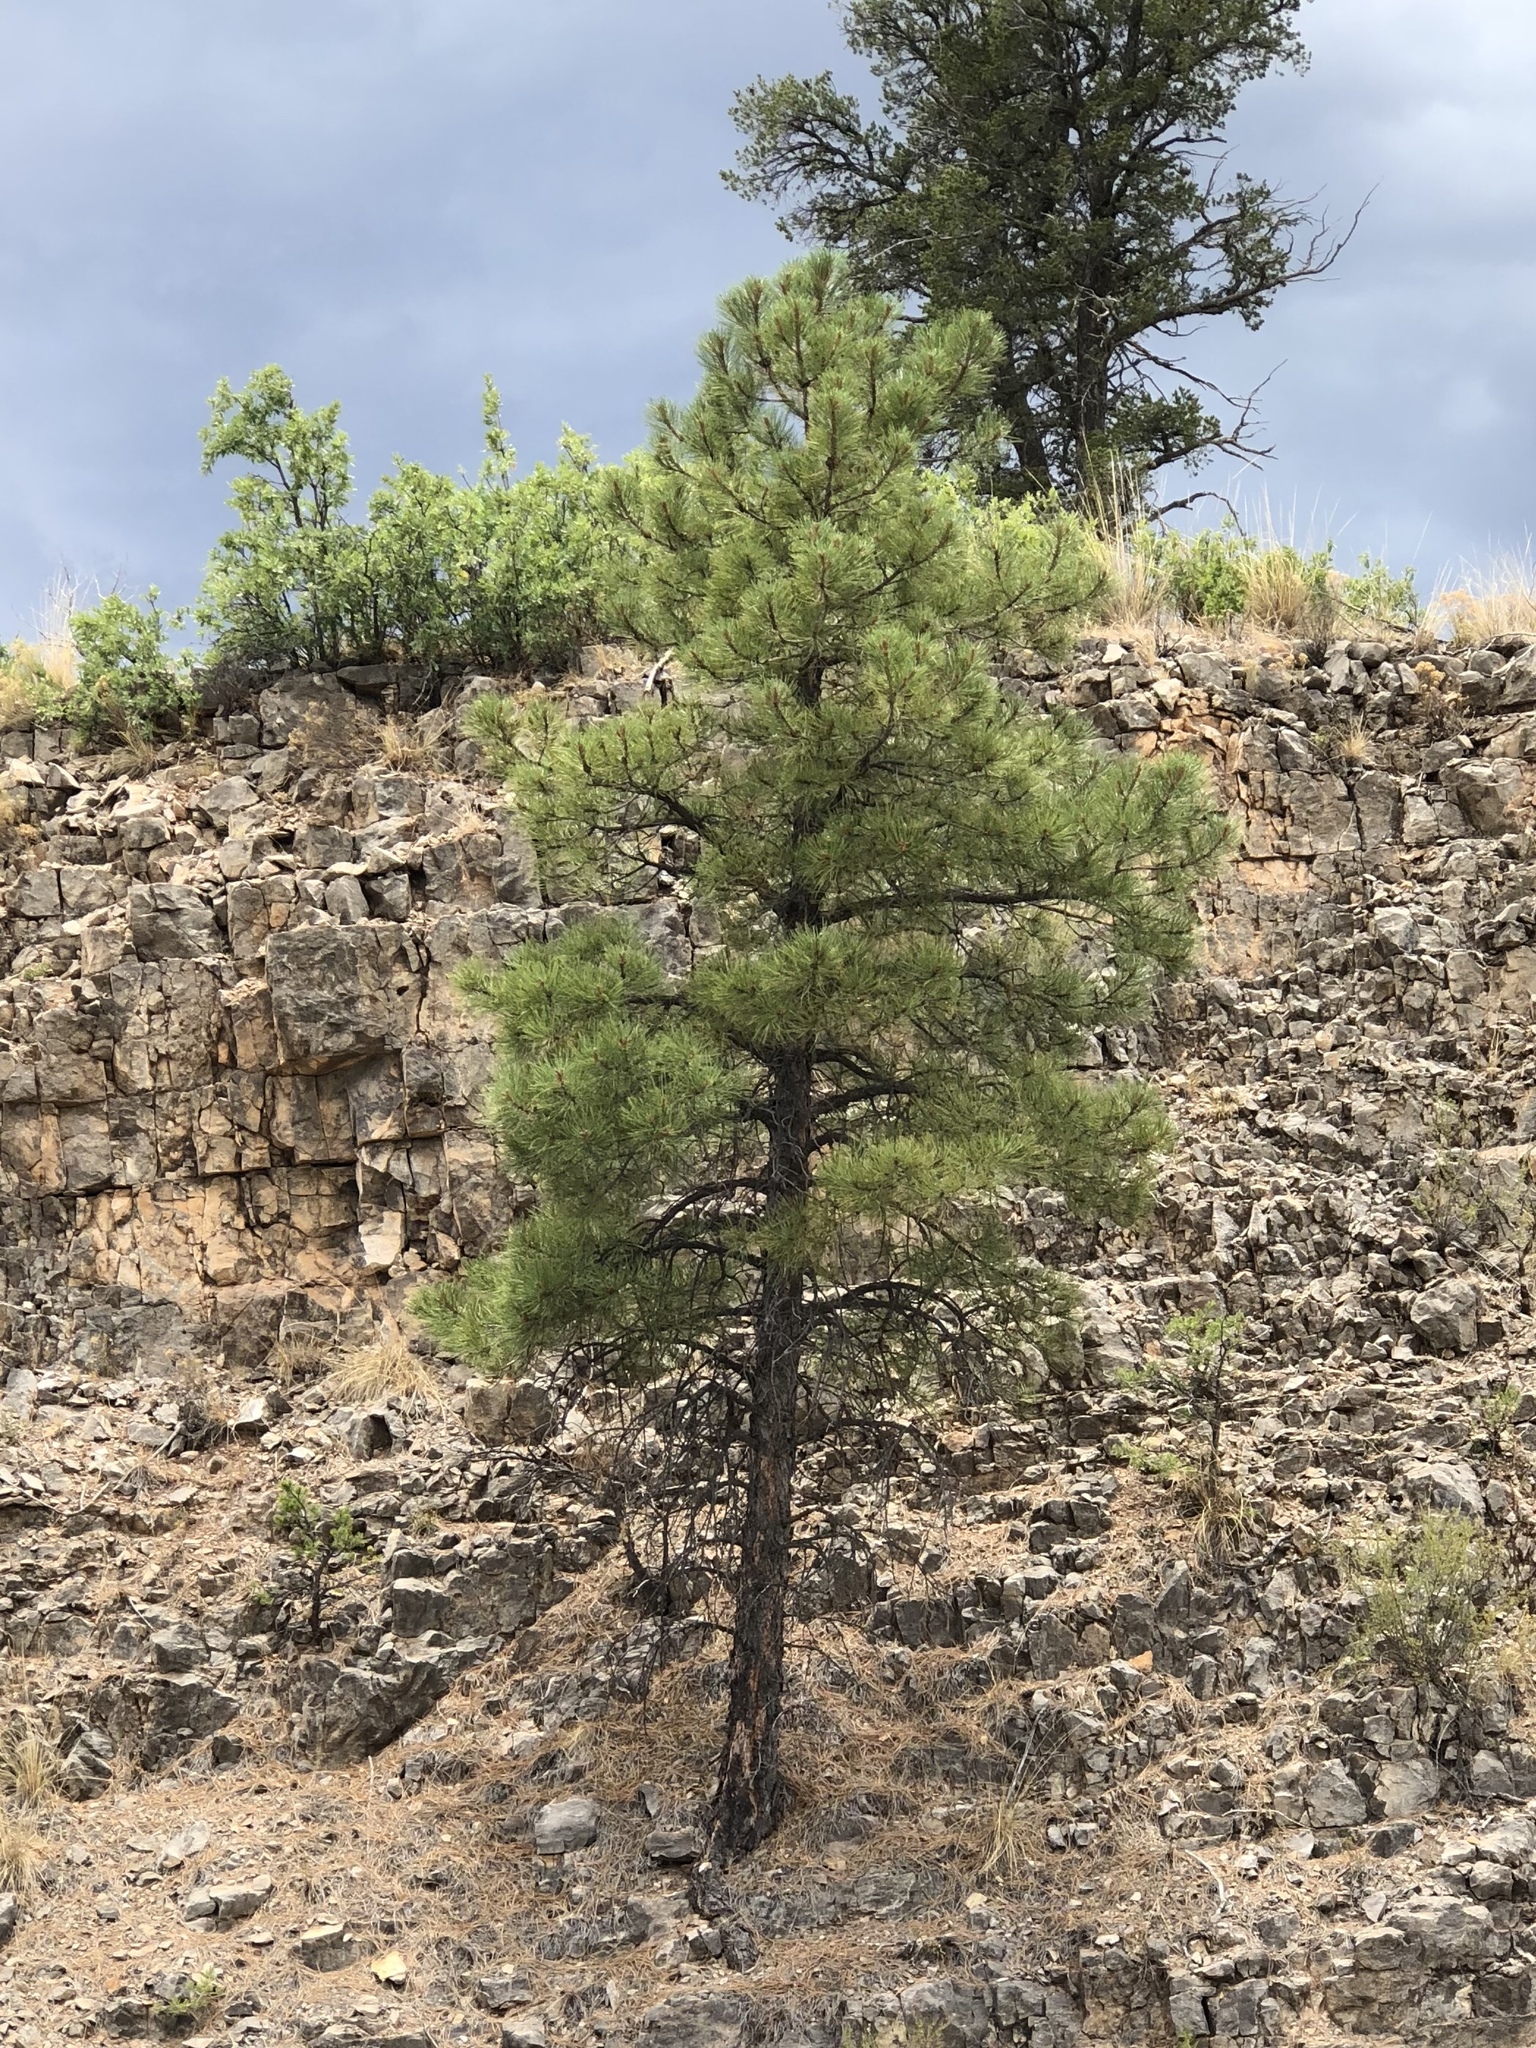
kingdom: Plantae
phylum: Tracheophyta
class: Pinopsida
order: Pinales
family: Pinaceae
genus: Pinus
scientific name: Pinus ponderosa
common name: Western yellow-pine
